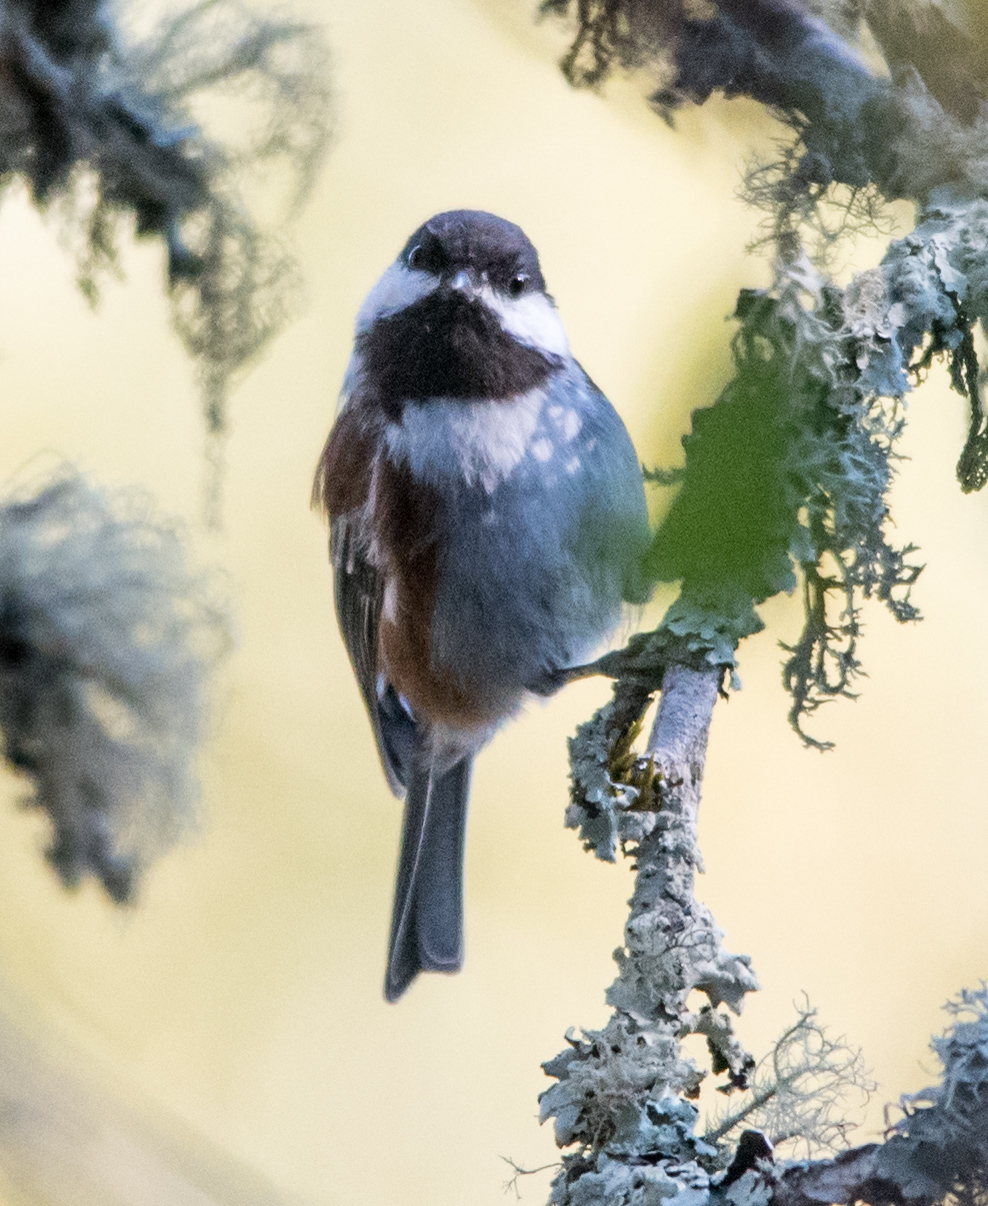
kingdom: Animalia
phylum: Chordata
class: Aves
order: Passeriformes
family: Paridae
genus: Poecile
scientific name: Poecile rufescens
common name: Chestnut-backed chickadee
